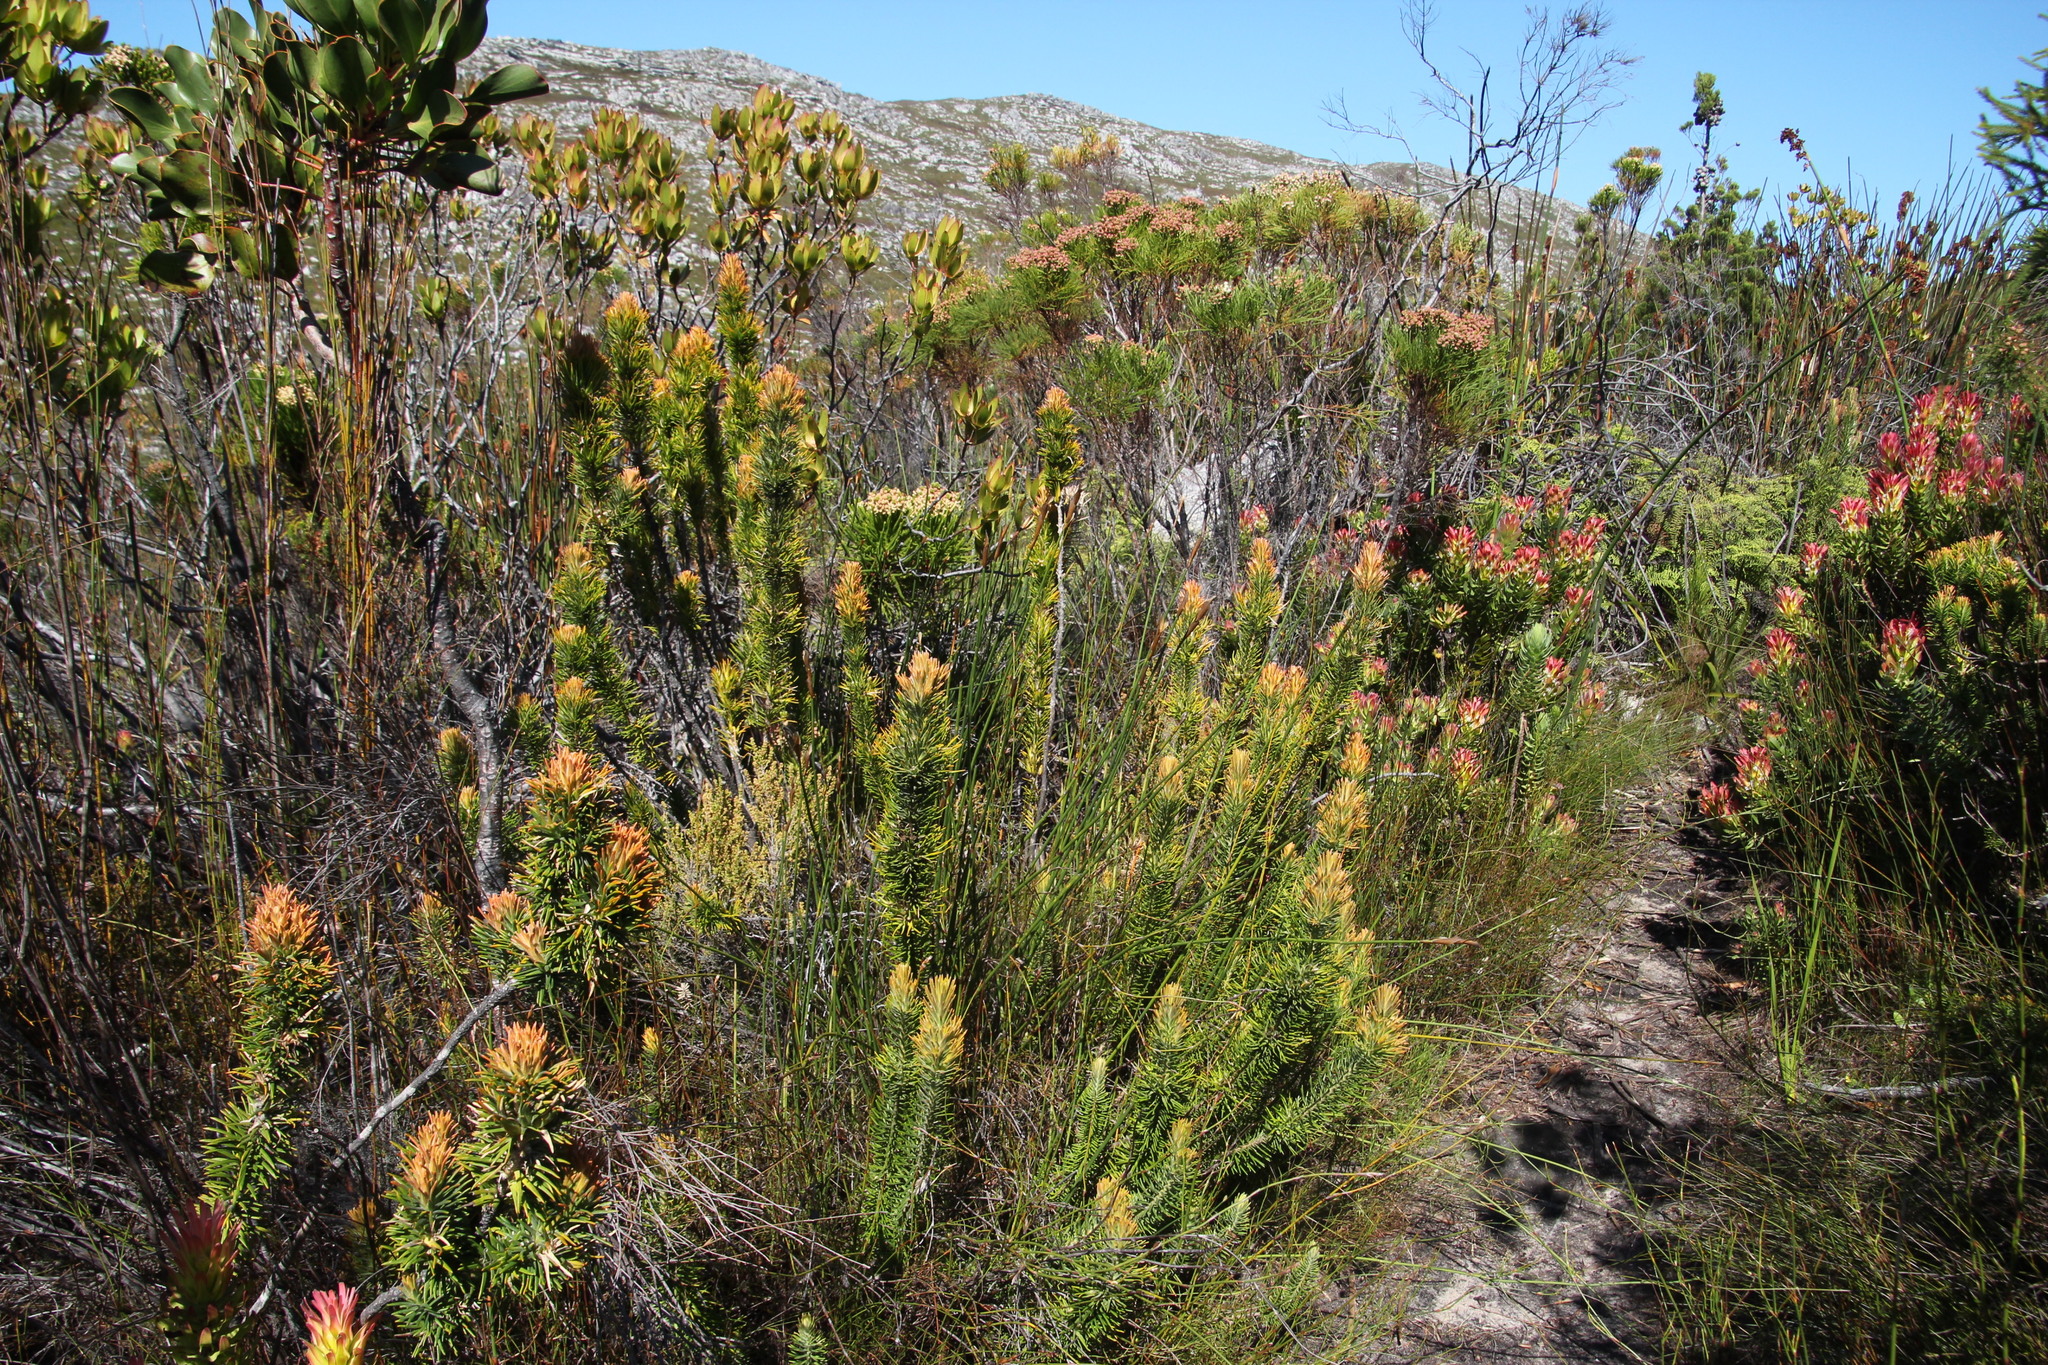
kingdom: Plantae
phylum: Tracheophyta
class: Magnoliopsida
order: Lamiales
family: Stilbaceae
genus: Retzia
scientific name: Retzia capensis
